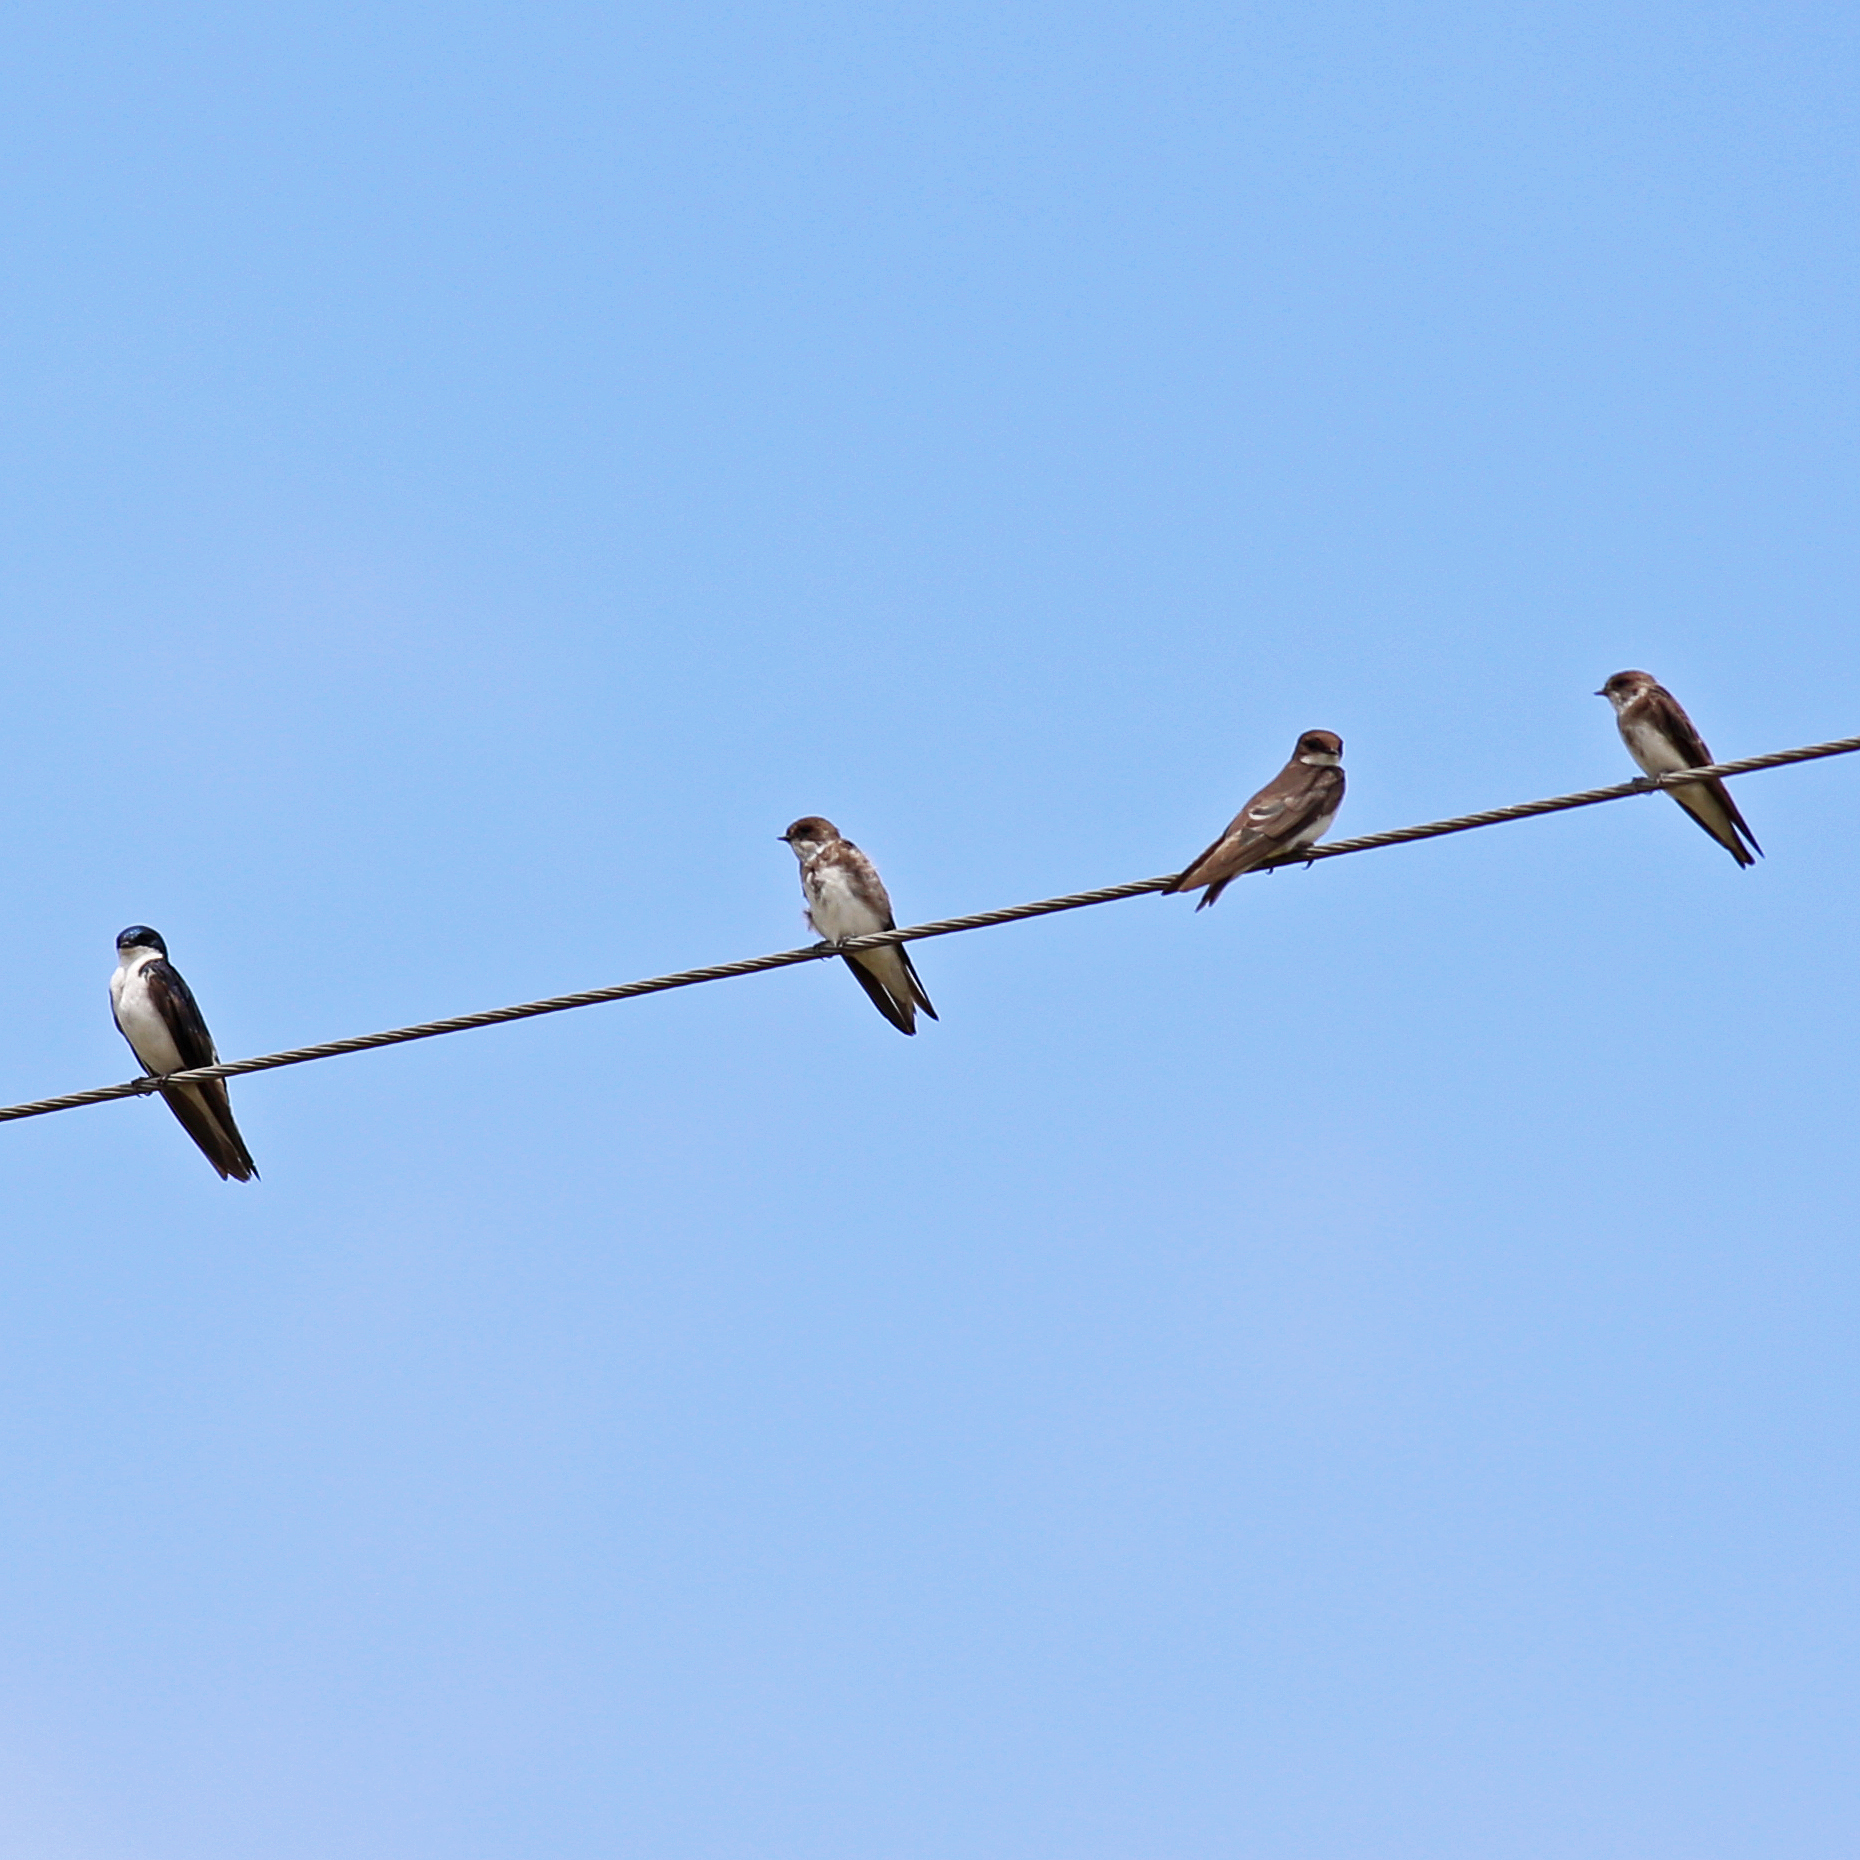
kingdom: Animalia
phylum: Chordata
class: Aves
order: Passeriformes
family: Hirundinidae
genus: Tachycineta
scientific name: Tachycineta bicolor
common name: Tree swallow
